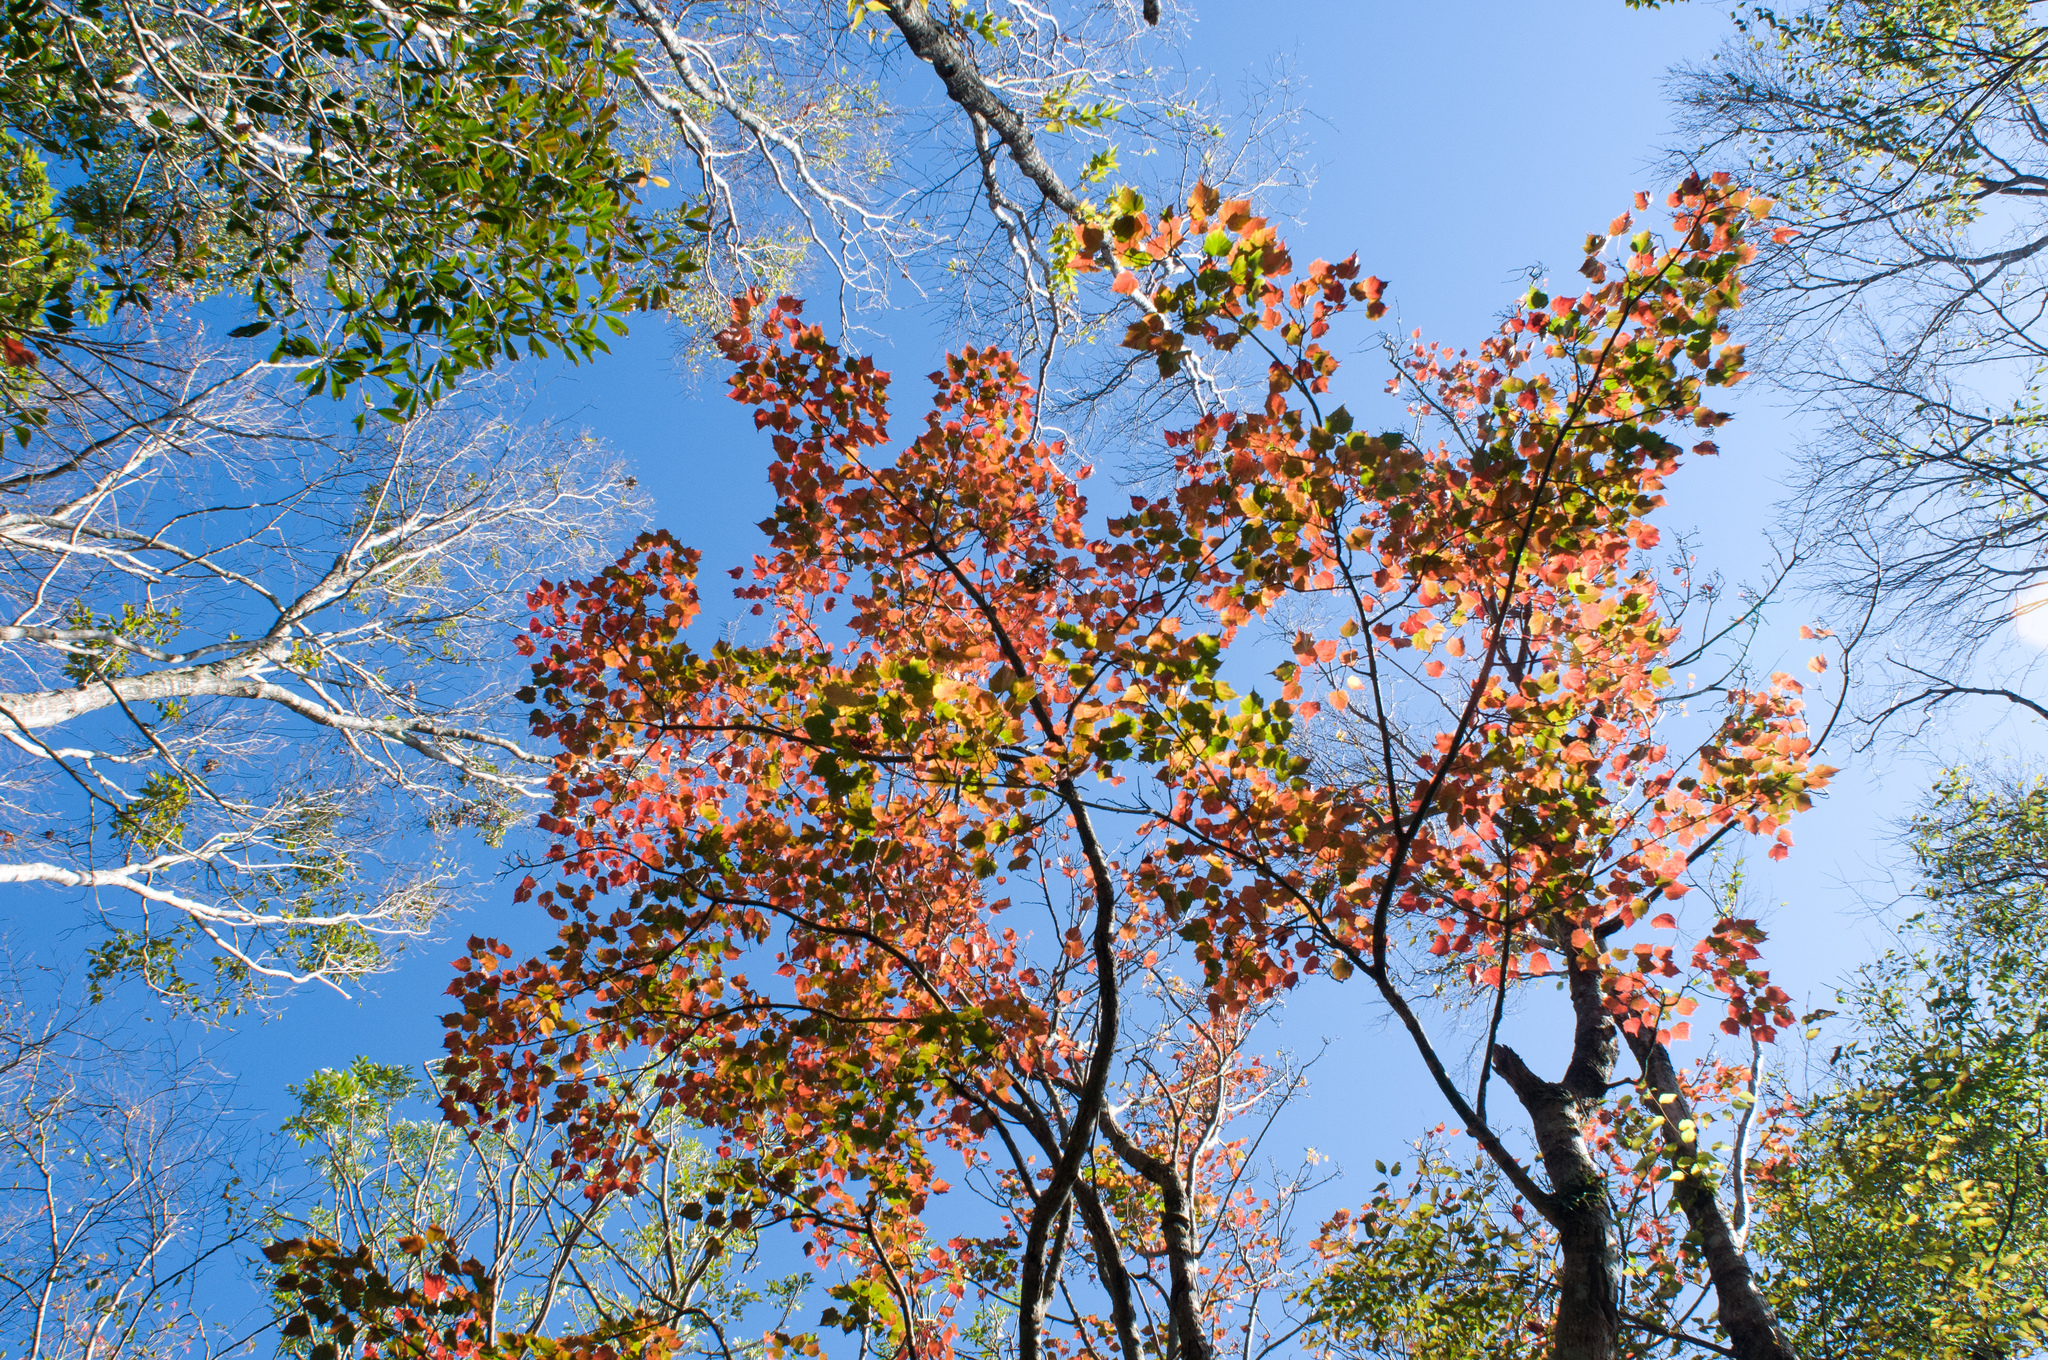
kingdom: Plantae
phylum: Tracheophyta
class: Magnoliopsida
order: Sapindales
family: Sapindaceae
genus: Acer
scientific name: Acer caudatifolium
